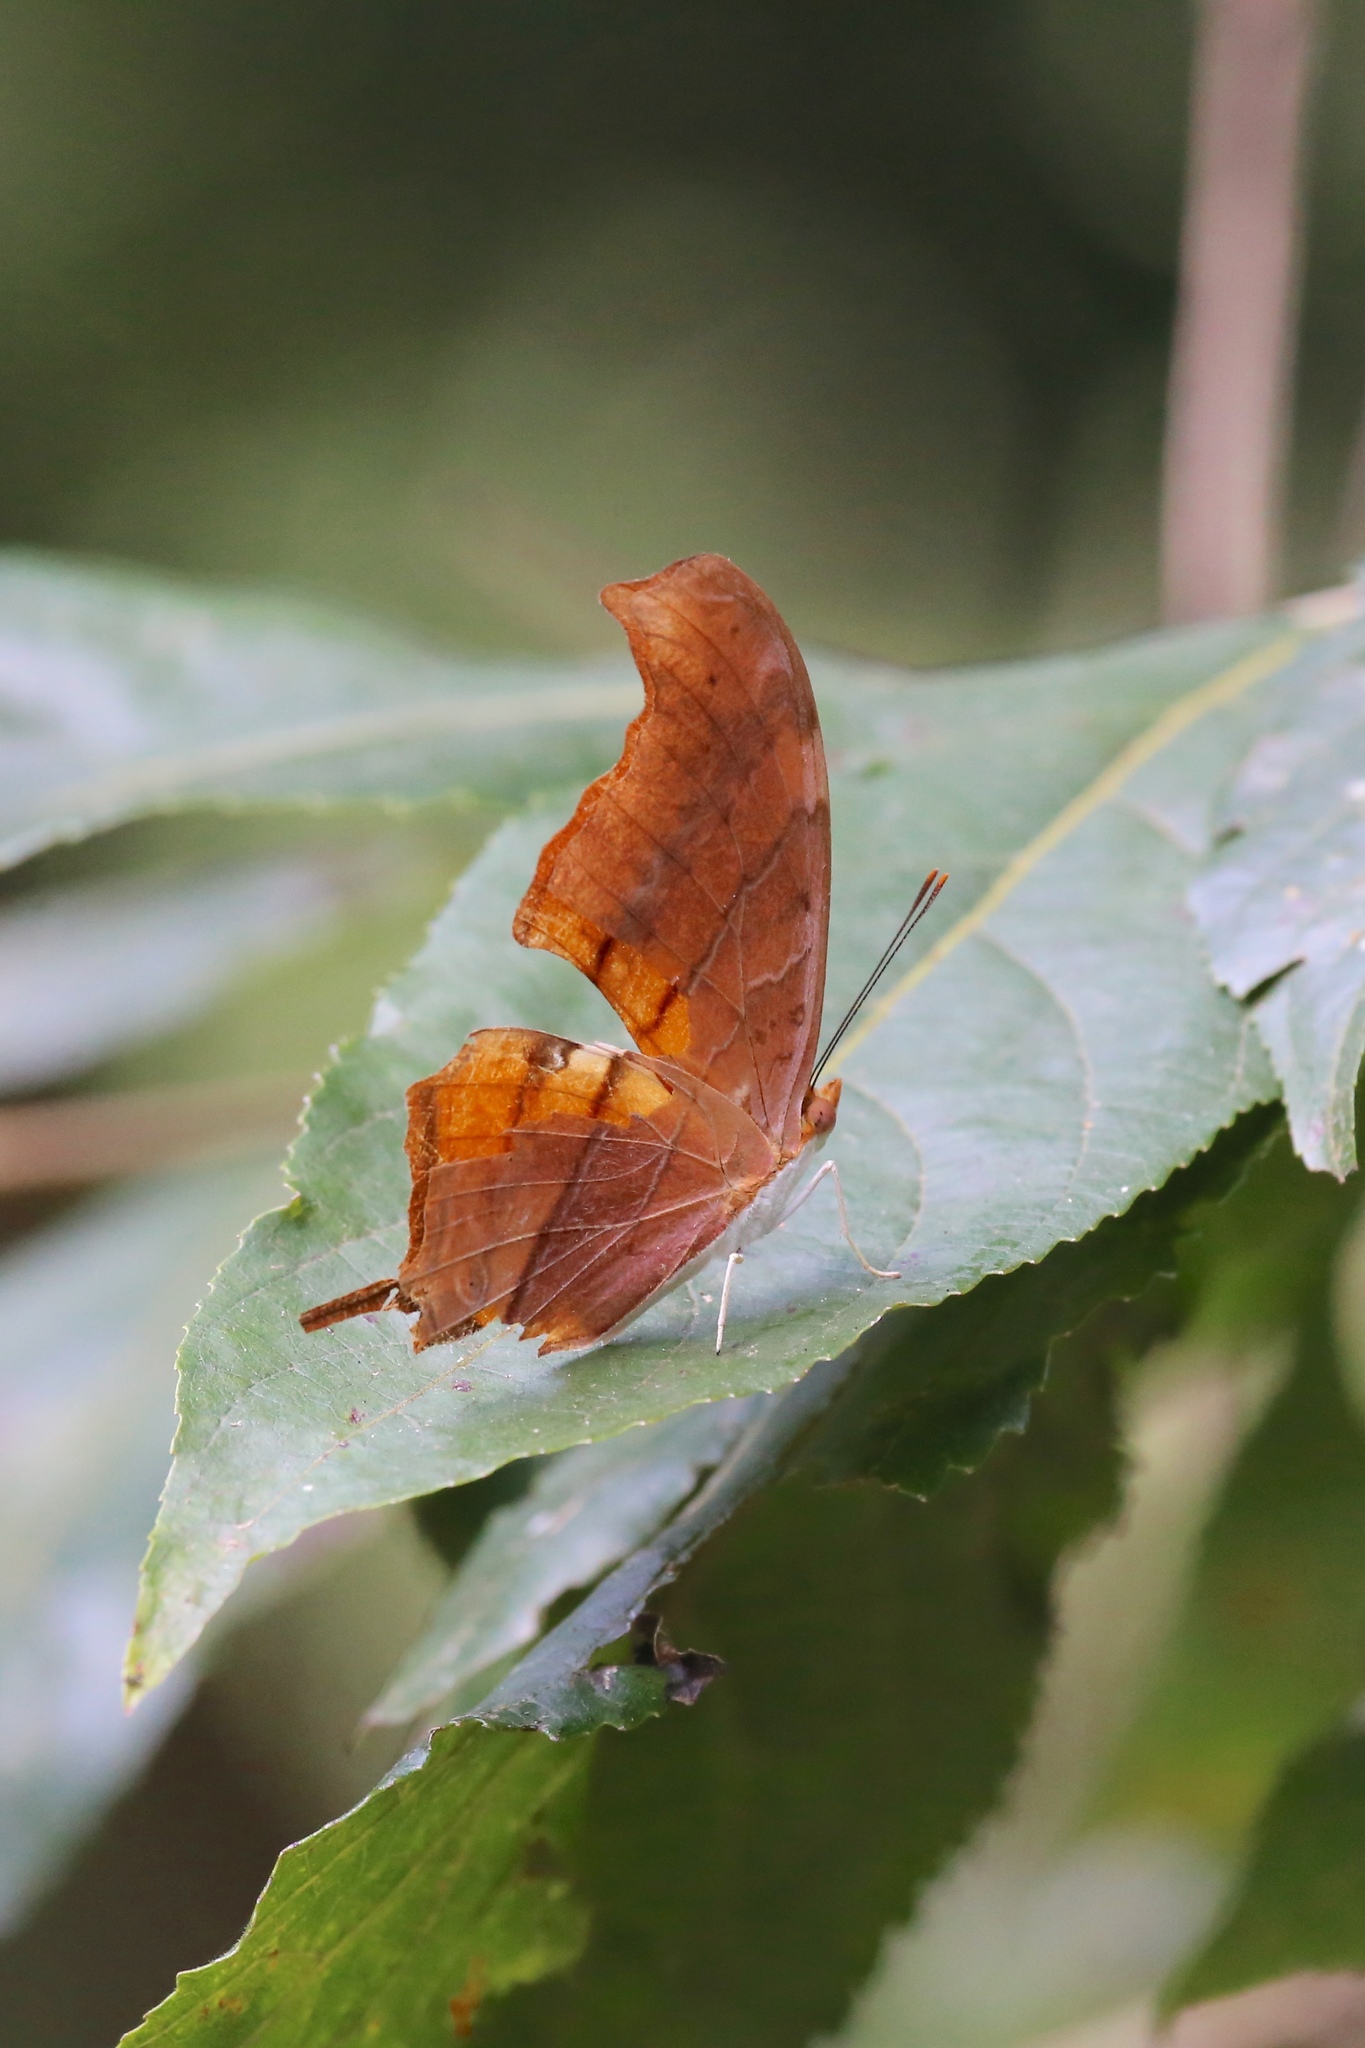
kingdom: Animalia
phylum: Arthropoda
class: Insecta
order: Lepidoptera
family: Nymphalidae
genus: Marpesia
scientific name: Marpesia petreus
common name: Red dagger wing
